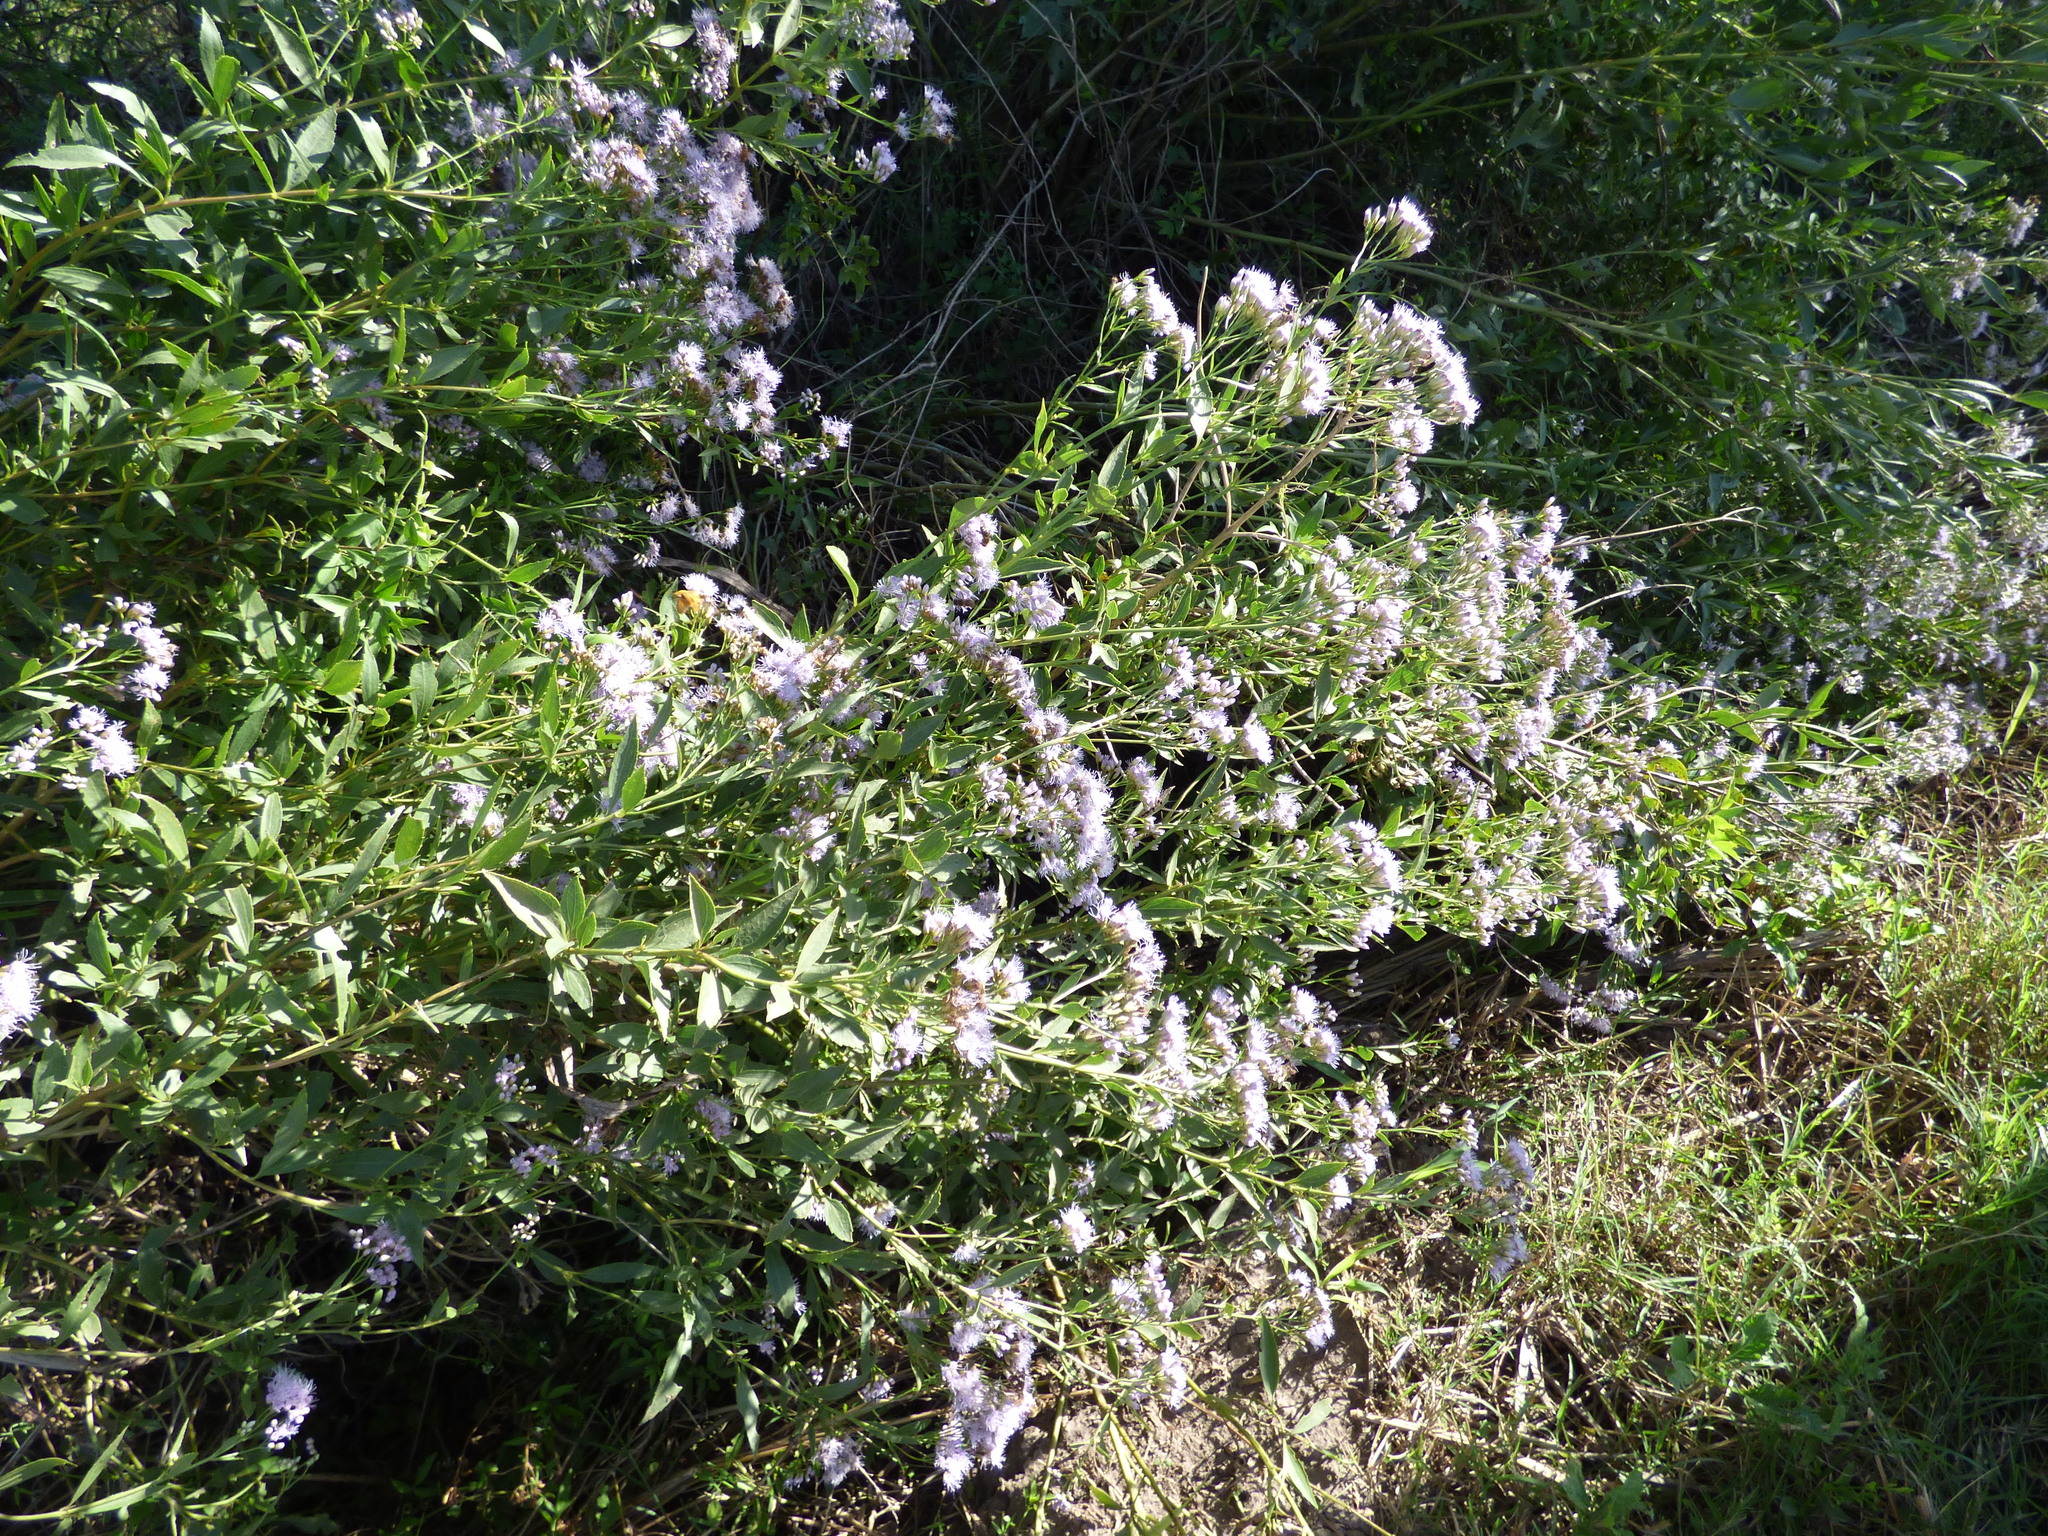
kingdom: Plantae
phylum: Tracheophyta
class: Magnoliopsida
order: Asterales
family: Asteraceae
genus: Chromolaena
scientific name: Chromolaena laevigata
